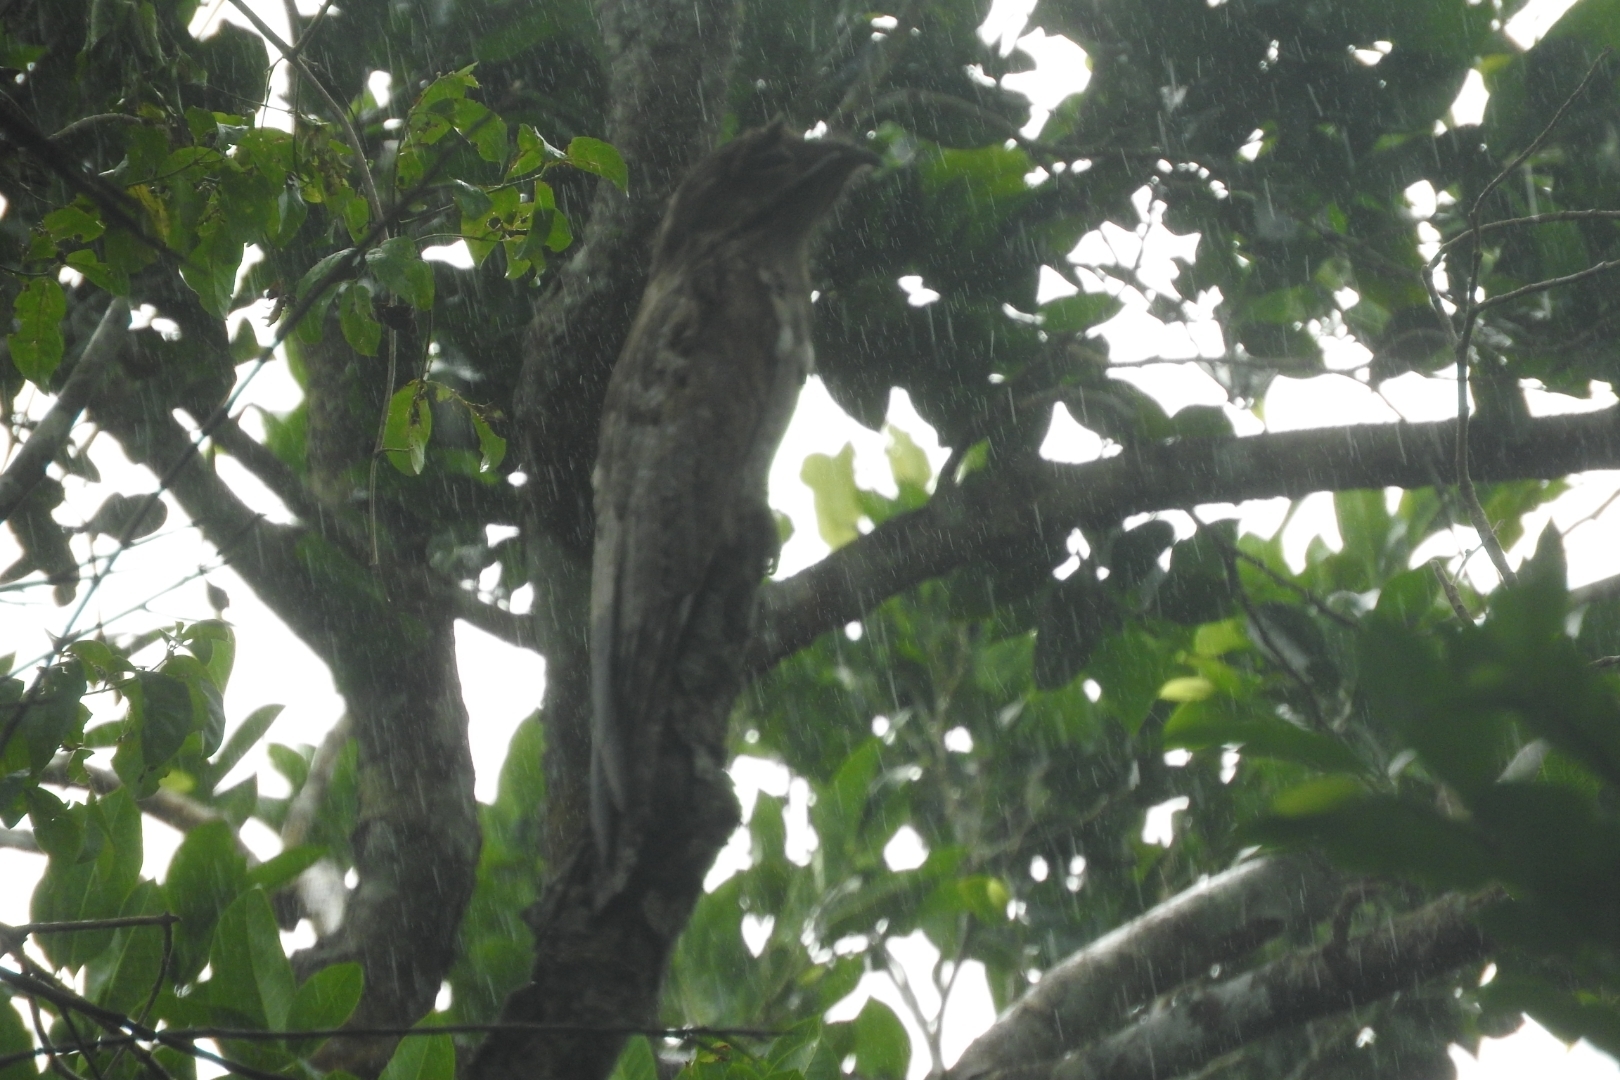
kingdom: Animalia
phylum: Chordata
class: Aves
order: Nyctibiiformes
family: Nyctibiidae
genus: Nyctibius
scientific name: Nyctibius jamaicensis
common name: Northern potoo
